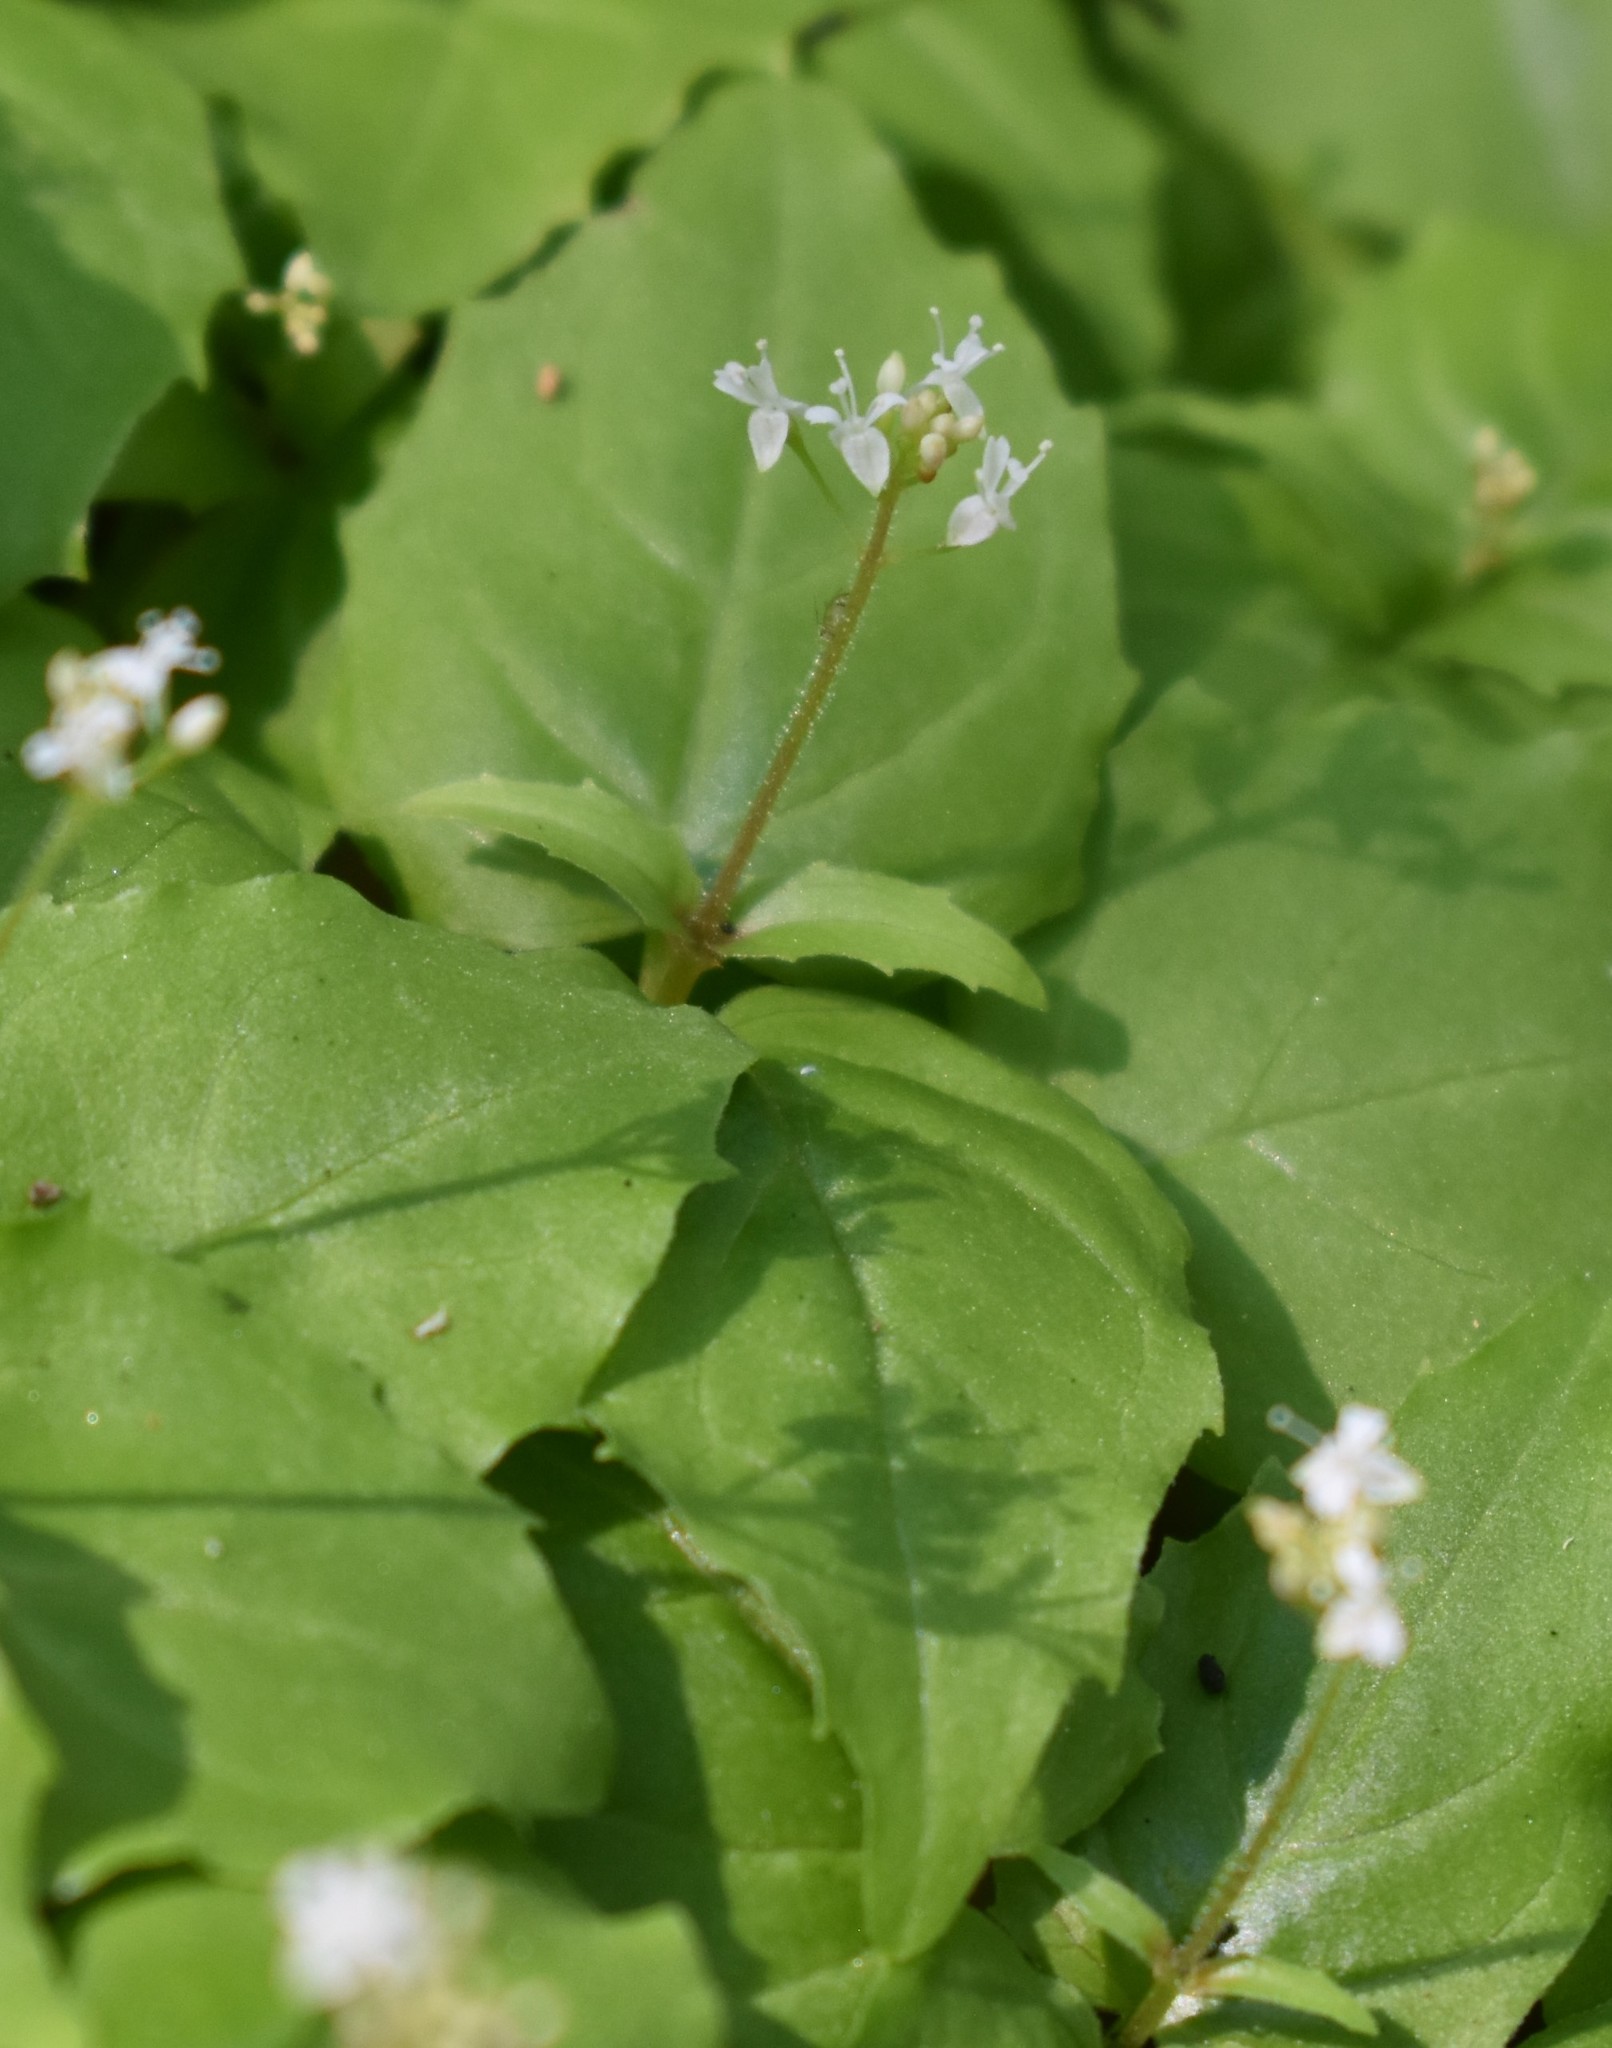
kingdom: Plantae
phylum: Tracheophyta
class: Magnoliopsida
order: Myrtales
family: Onagraceae
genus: Circaea
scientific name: Circaea alpina
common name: Alpine enchanter's-nightshade
